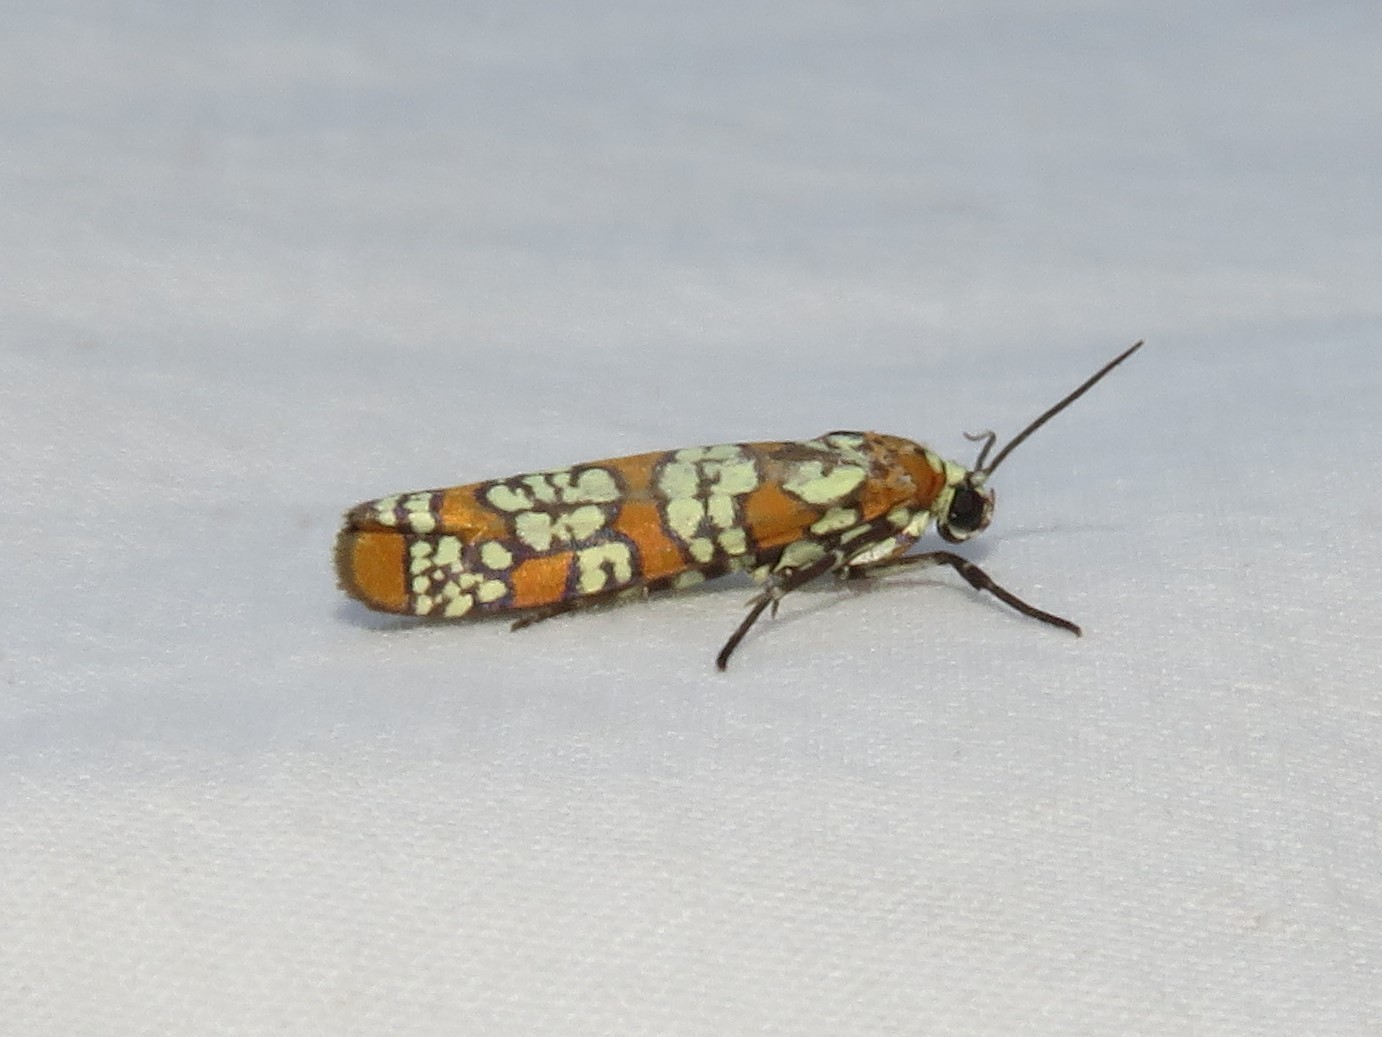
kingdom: Animalia
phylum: Arthropoda
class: Insecta
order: Lepidoptera
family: Attevidae
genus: Atteva
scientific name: Atteva punctella
